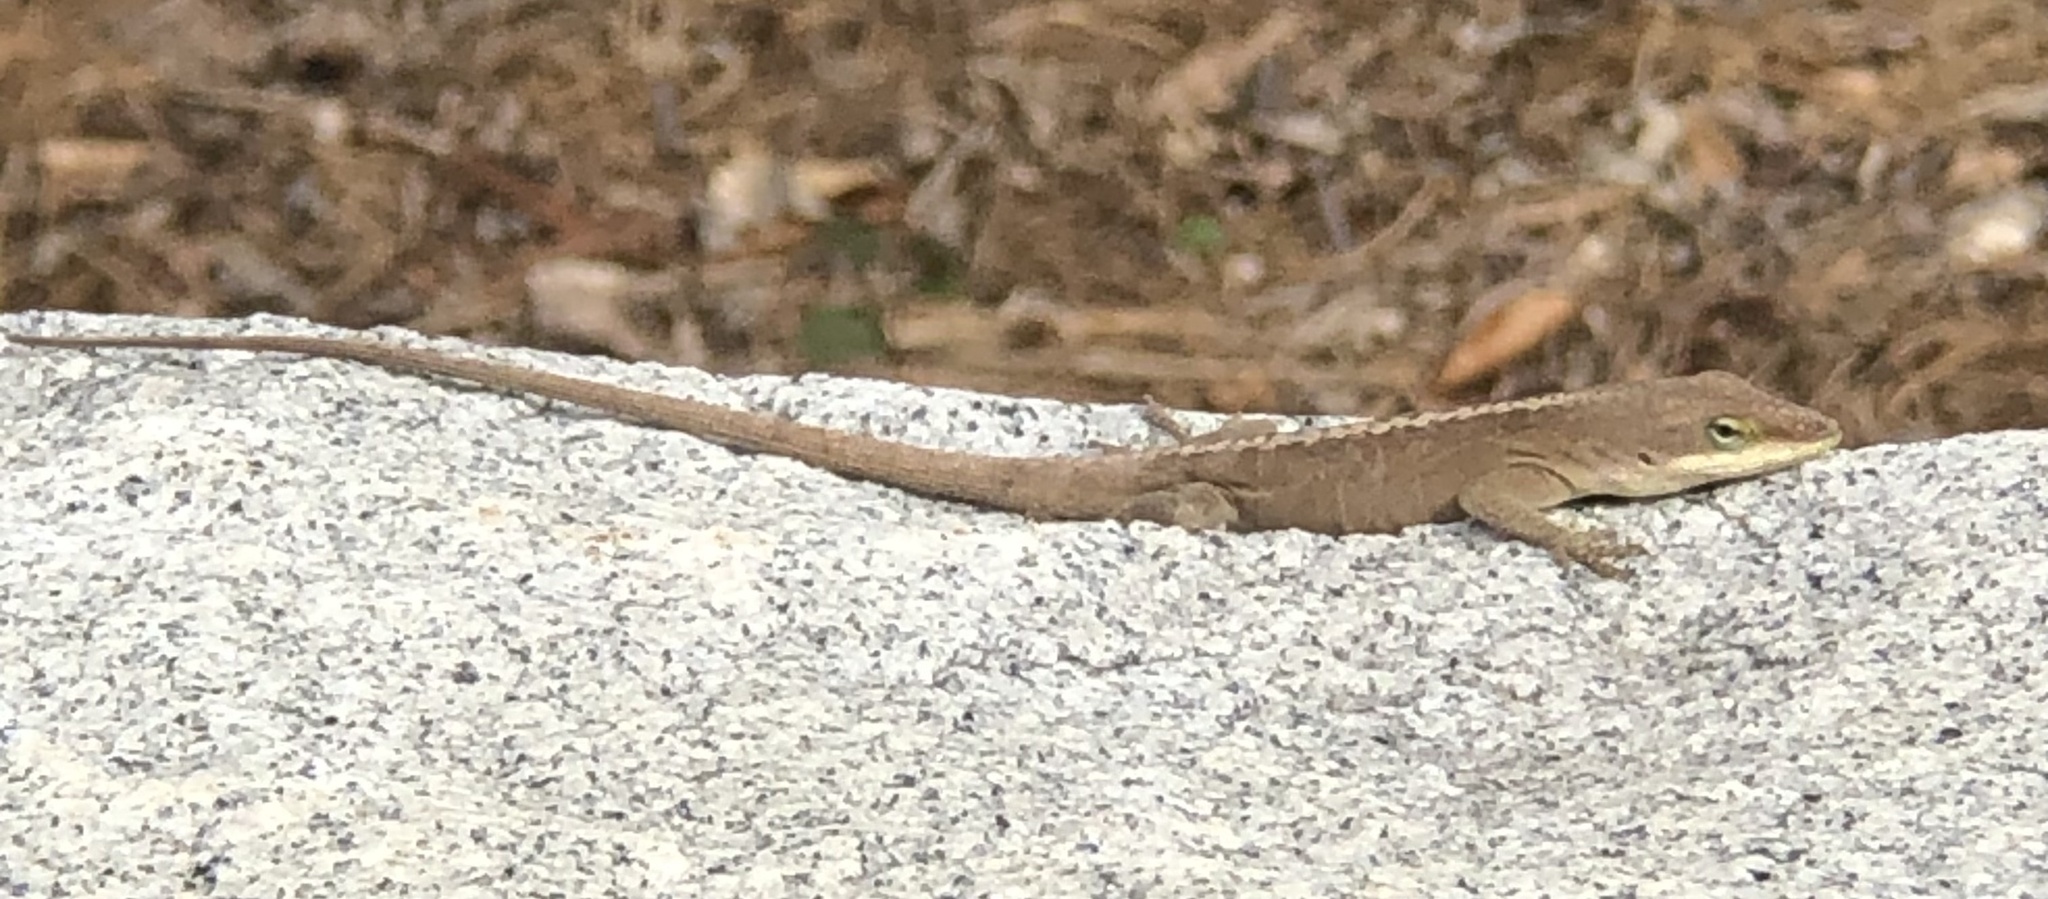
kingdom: Animalia
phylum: Chordata
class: Squamata
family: Dactyloidae
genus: Anolis
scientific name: Anolis carolinensis
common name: Green anole
